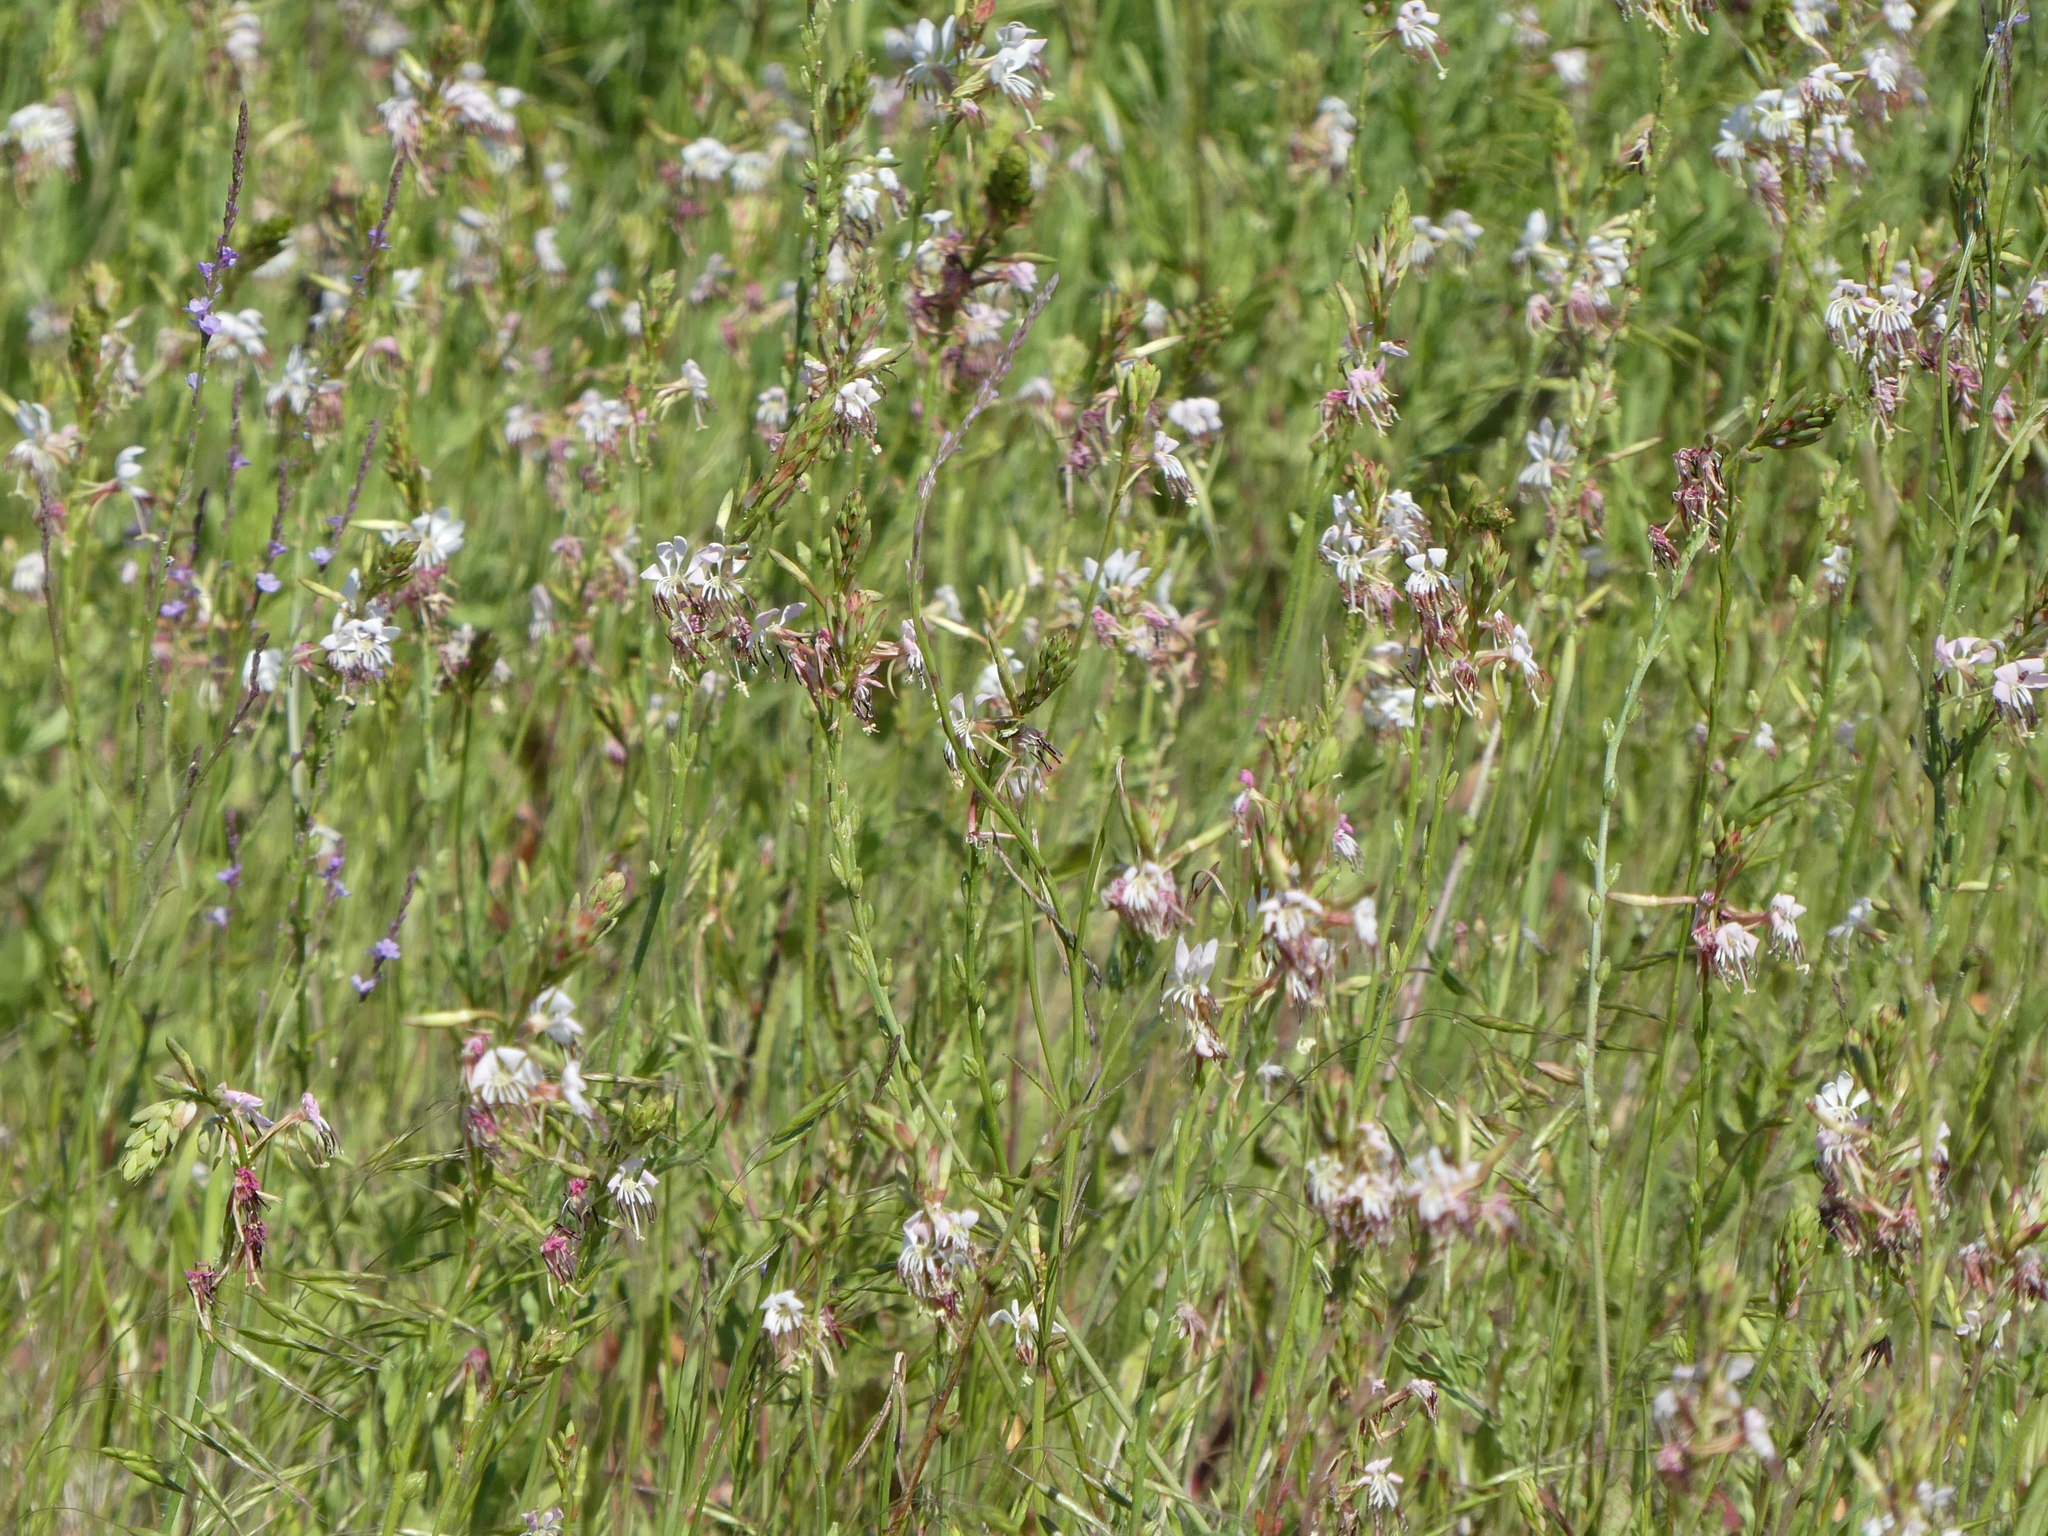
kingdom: Plantae
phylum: Tracheophyta
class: Magnoliopsida
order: Myrtales
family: Onagraceae
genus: Oenothera
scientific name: Oenothera suffulta
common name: Kisses
